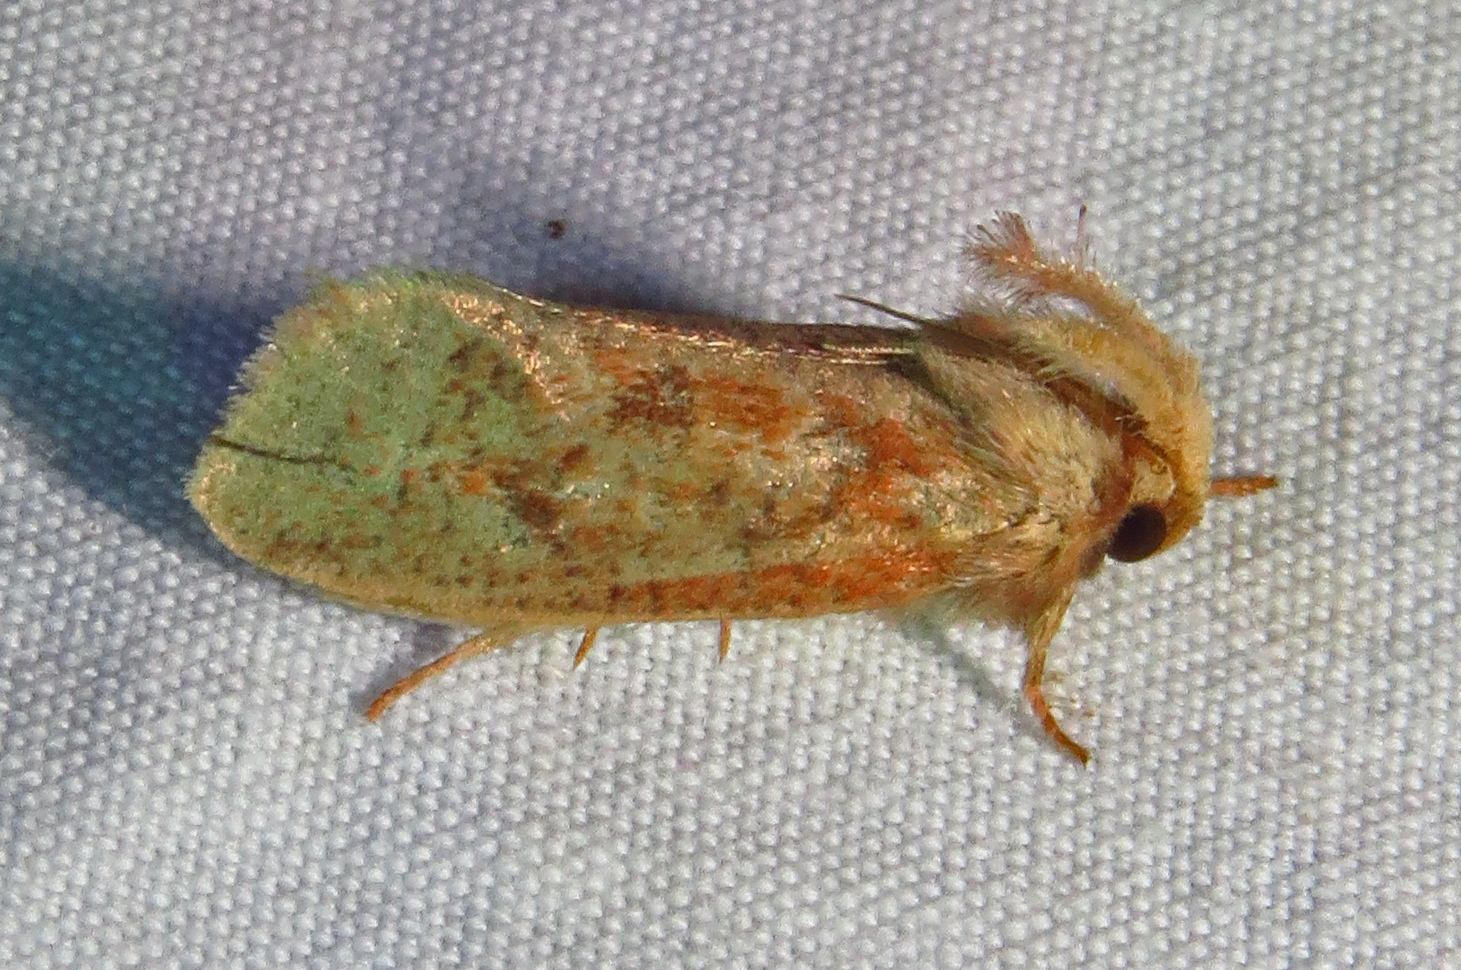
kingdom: Animalia
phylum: Arthropoda
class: Insecta
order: Lepidoptera
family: Tineidae
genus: Acrolophus
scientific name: Acrolophus plumifrontella
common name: Eastern grass tubeworm moth
